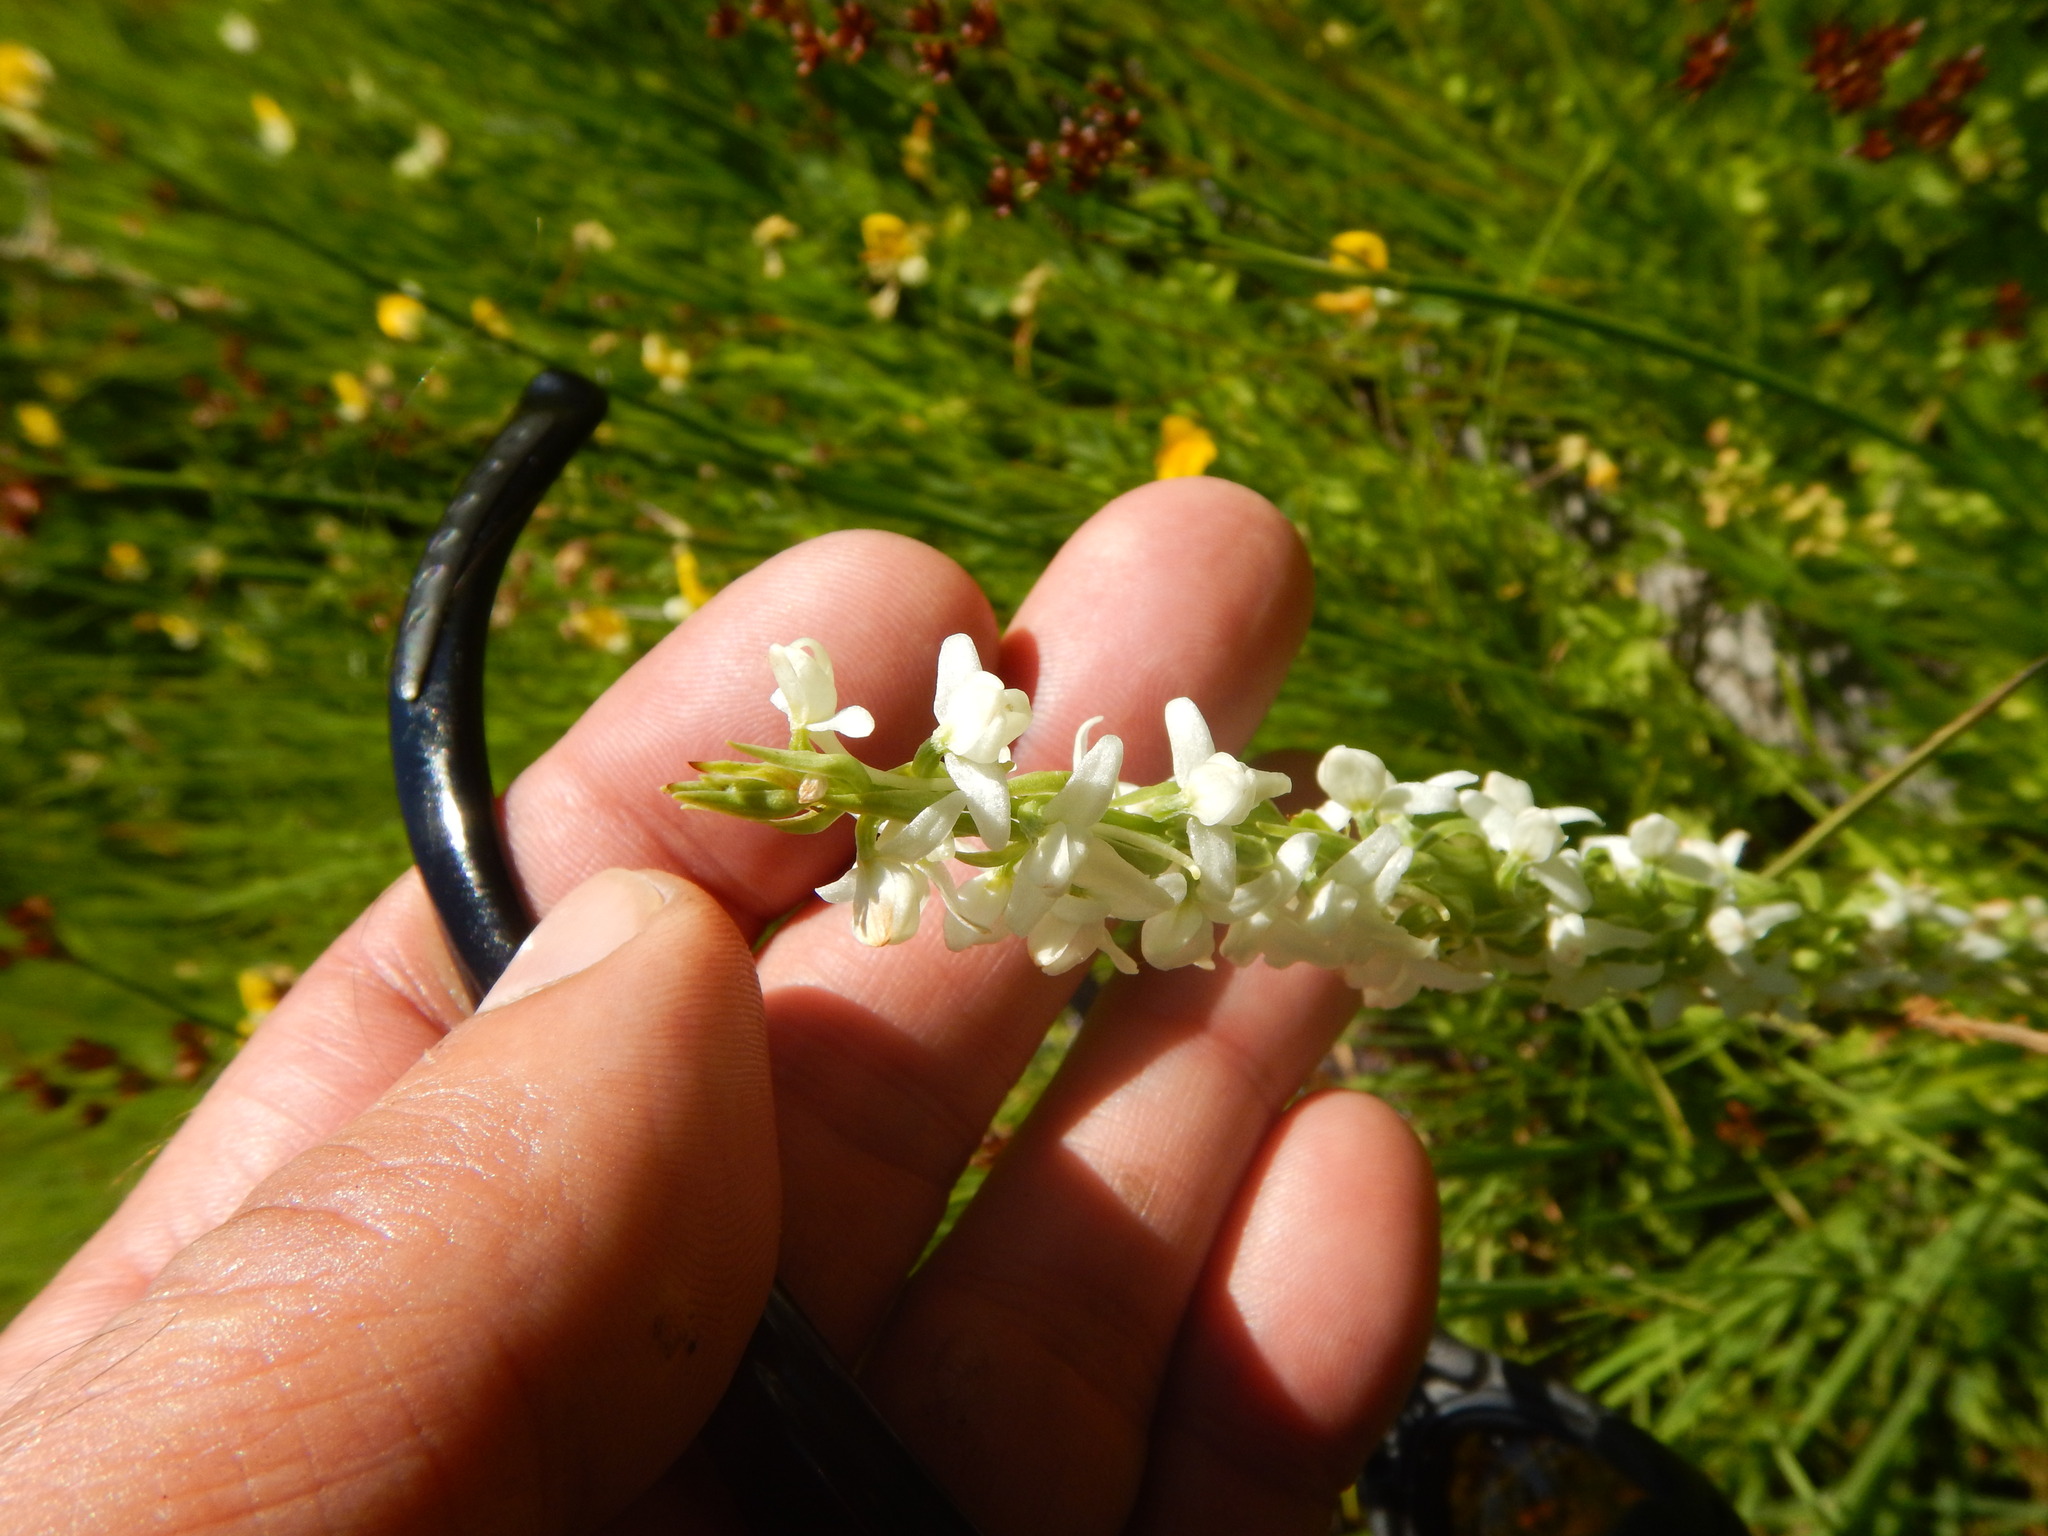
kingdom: Plantae
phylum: Tracheophyta
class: Liliopsida
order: Asparagales
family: Orchidaceae
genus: Platanthera
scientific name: Platanthera dilatata
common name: Bog candles
